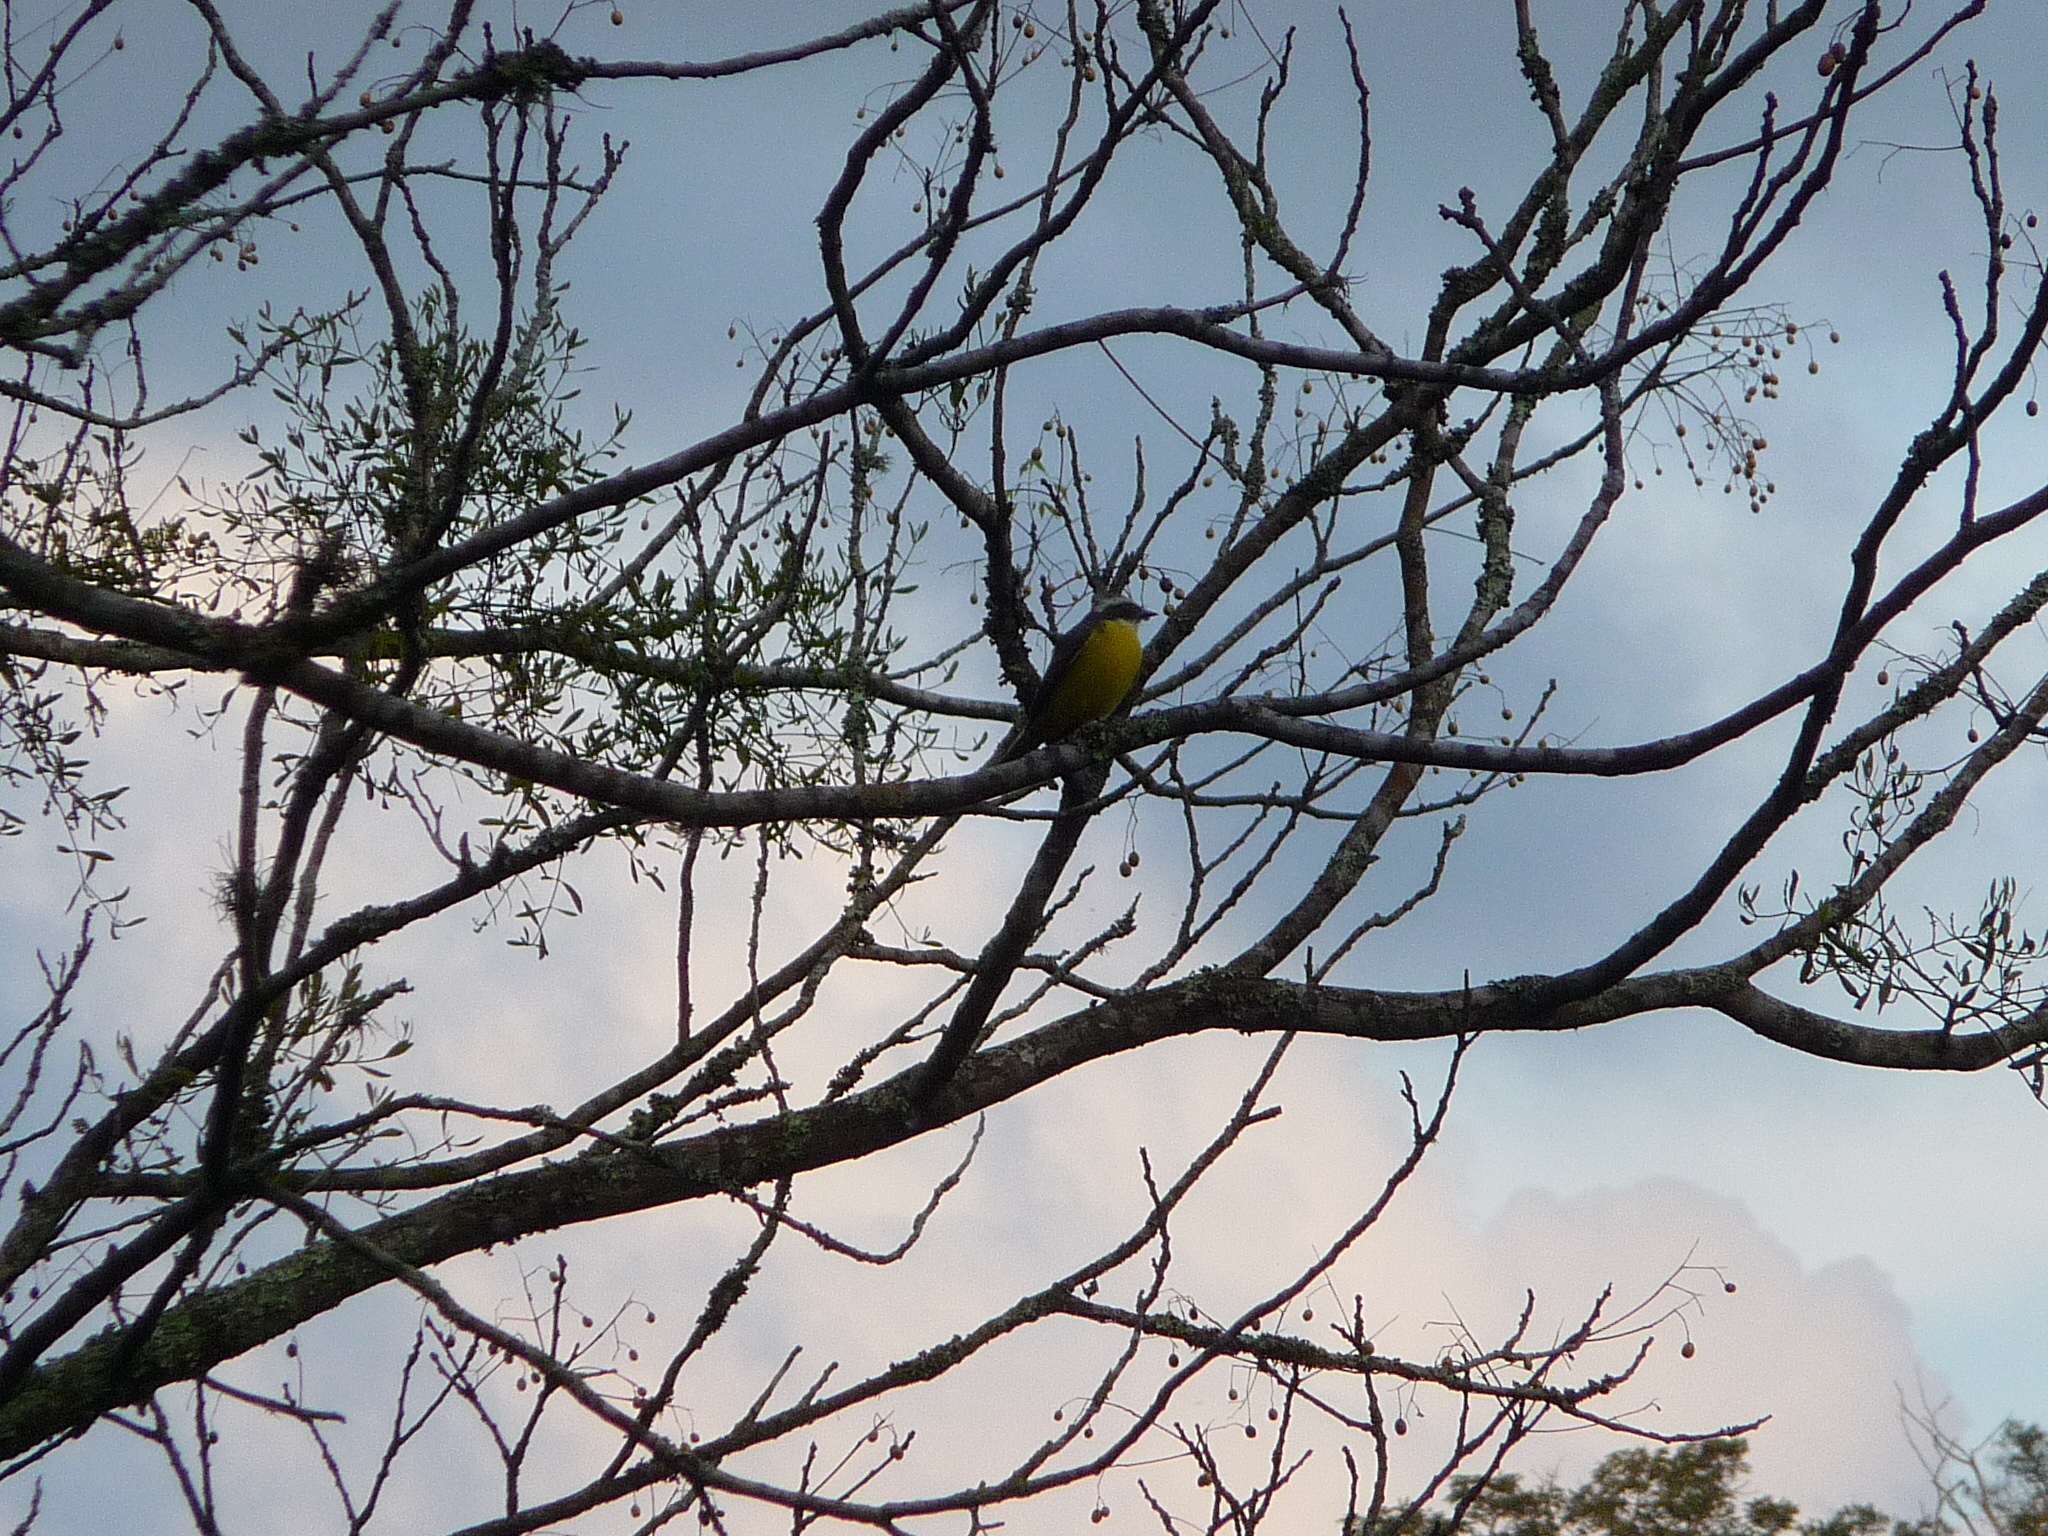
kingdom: Animalia
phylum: Chordata
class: Aves
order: Passeriformes
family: Tyrannidae
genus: Pitangus
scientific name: Pitangus sulphuratus
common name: Great kiskadee
